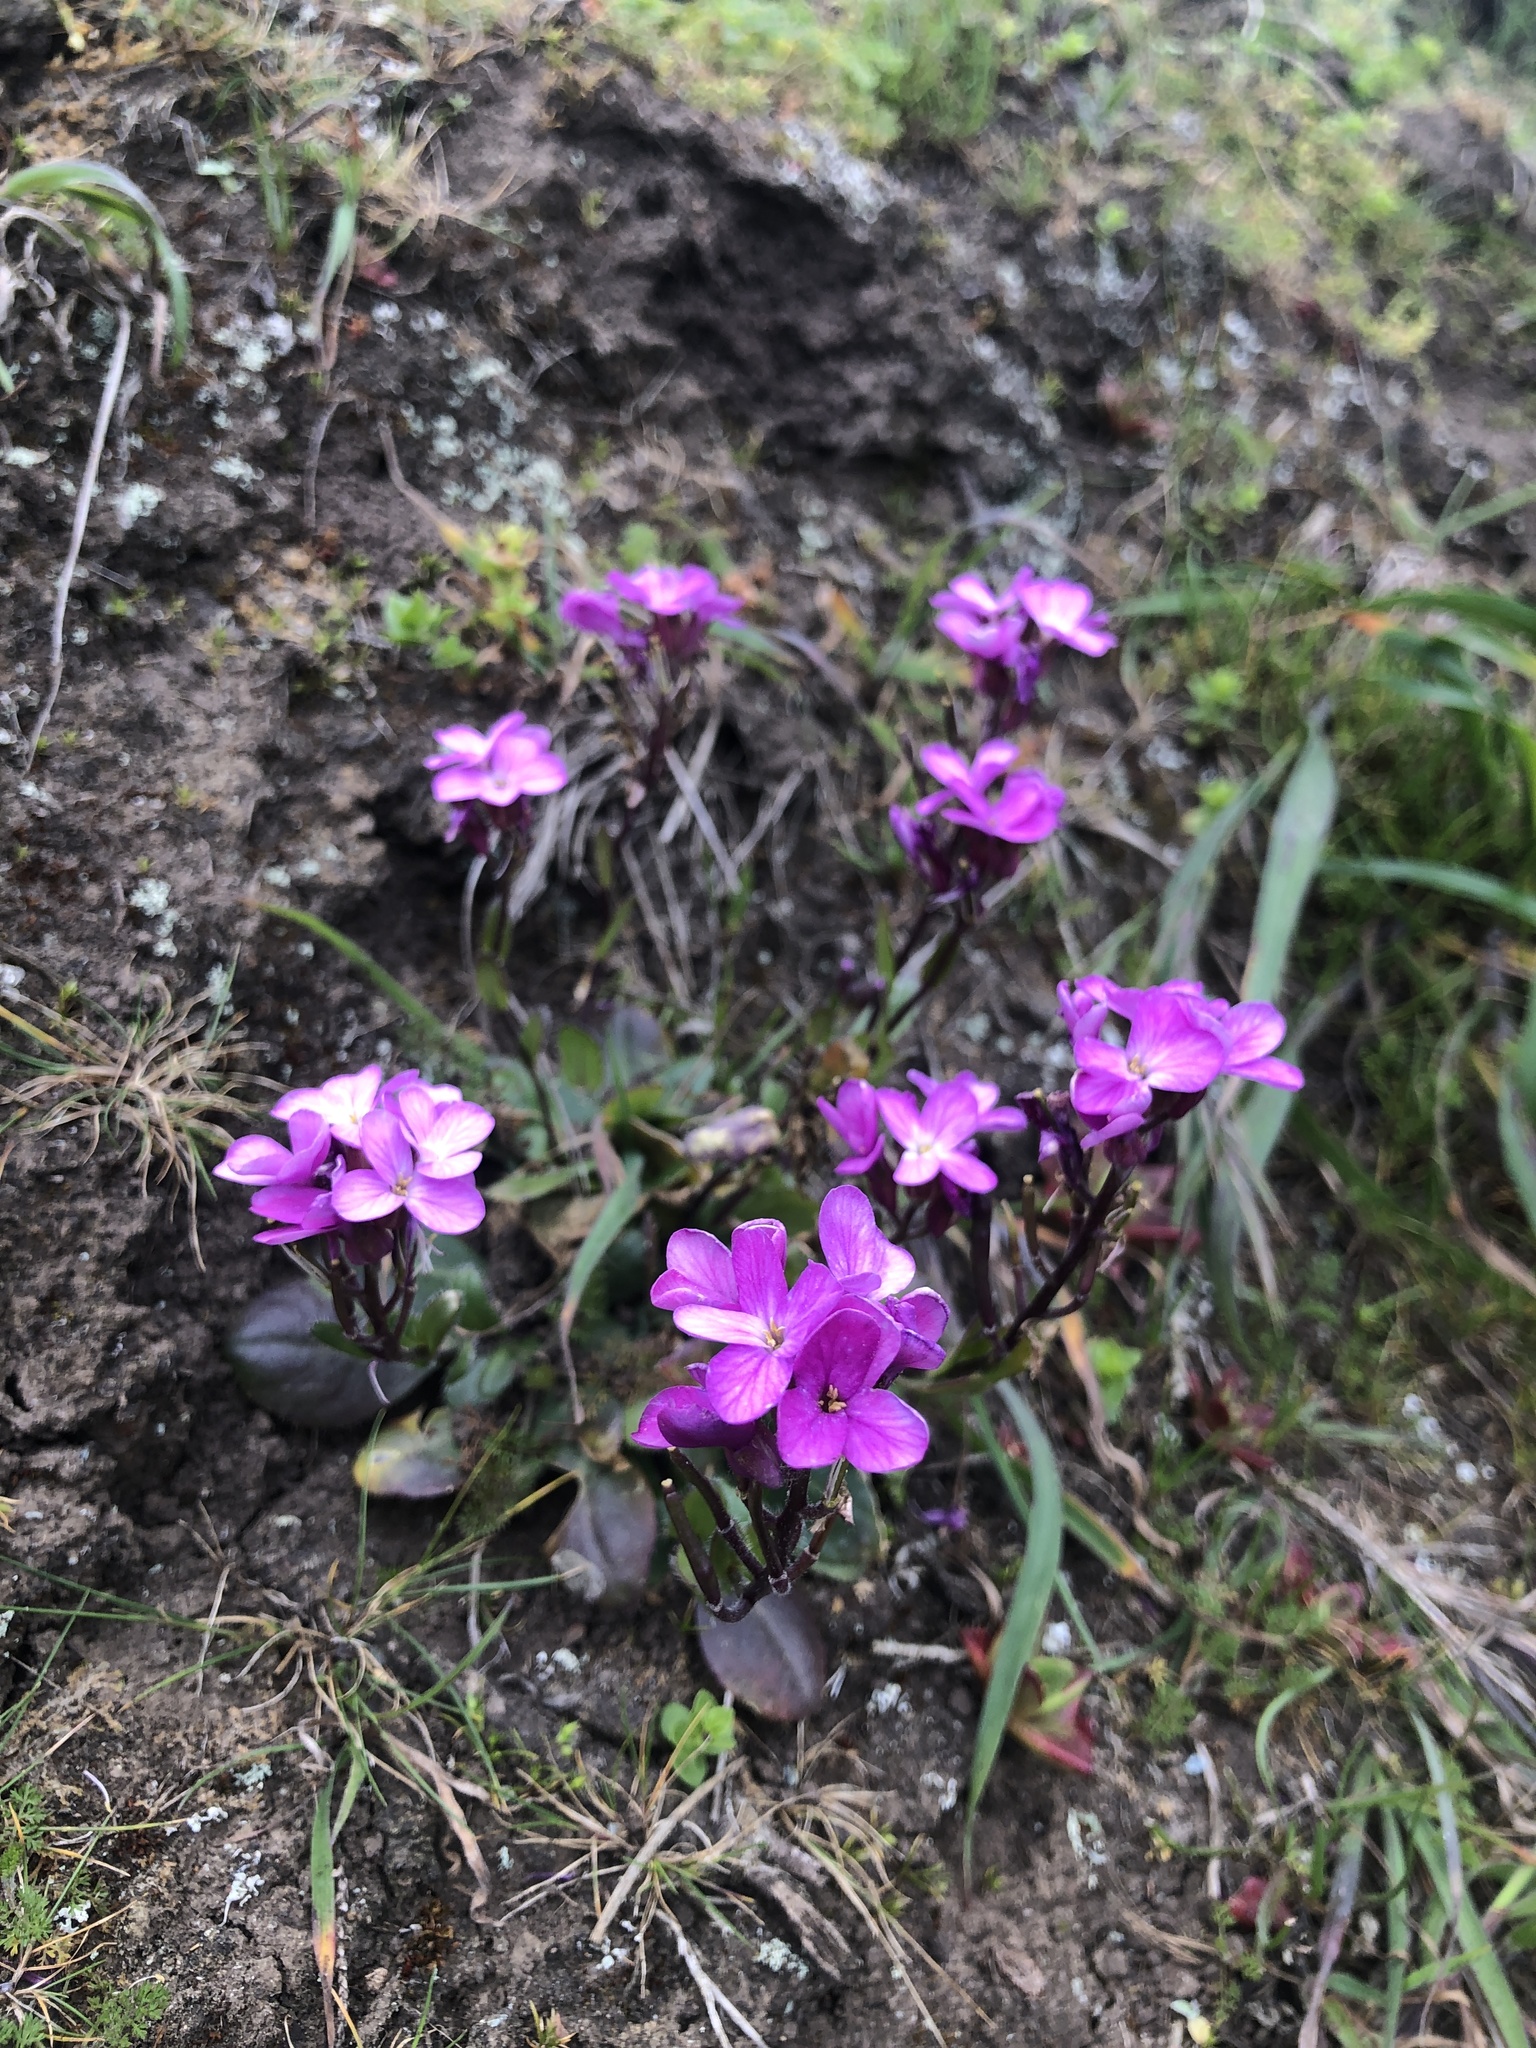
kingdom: Plantae
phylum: Tracheophyta
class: Magnoliopsida
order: Brassicales
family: Brassicaceae
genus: Arabis
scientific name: Arabis blepharophylla
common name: Rose rockcress
